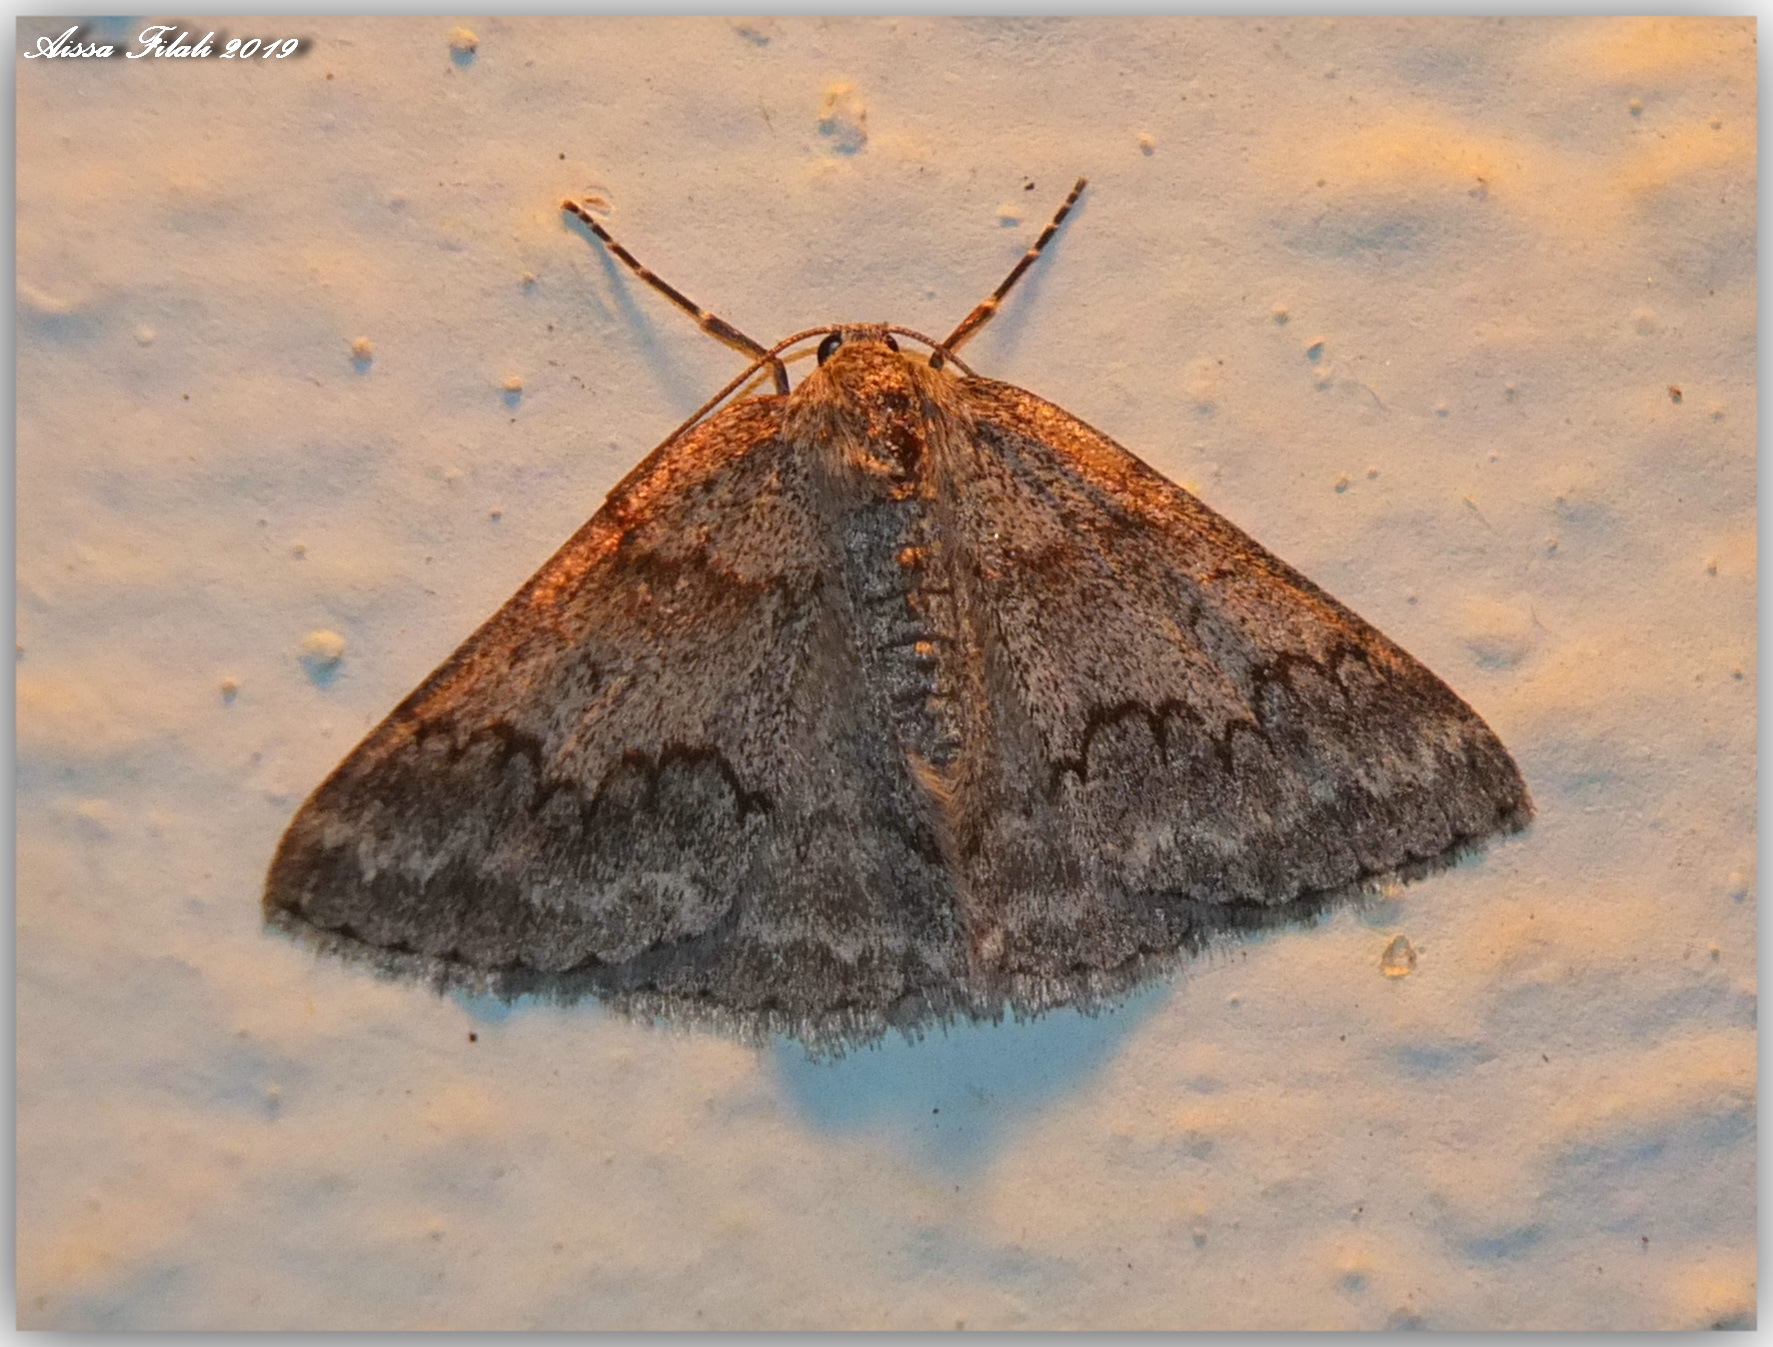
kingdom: Animalia
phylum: Arthropoda
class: Insecta
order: Lepidoptera
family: Geometridae
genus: Pseudoterpna
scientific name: Pseudoterpna coronillaria
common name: Jersey emerald
